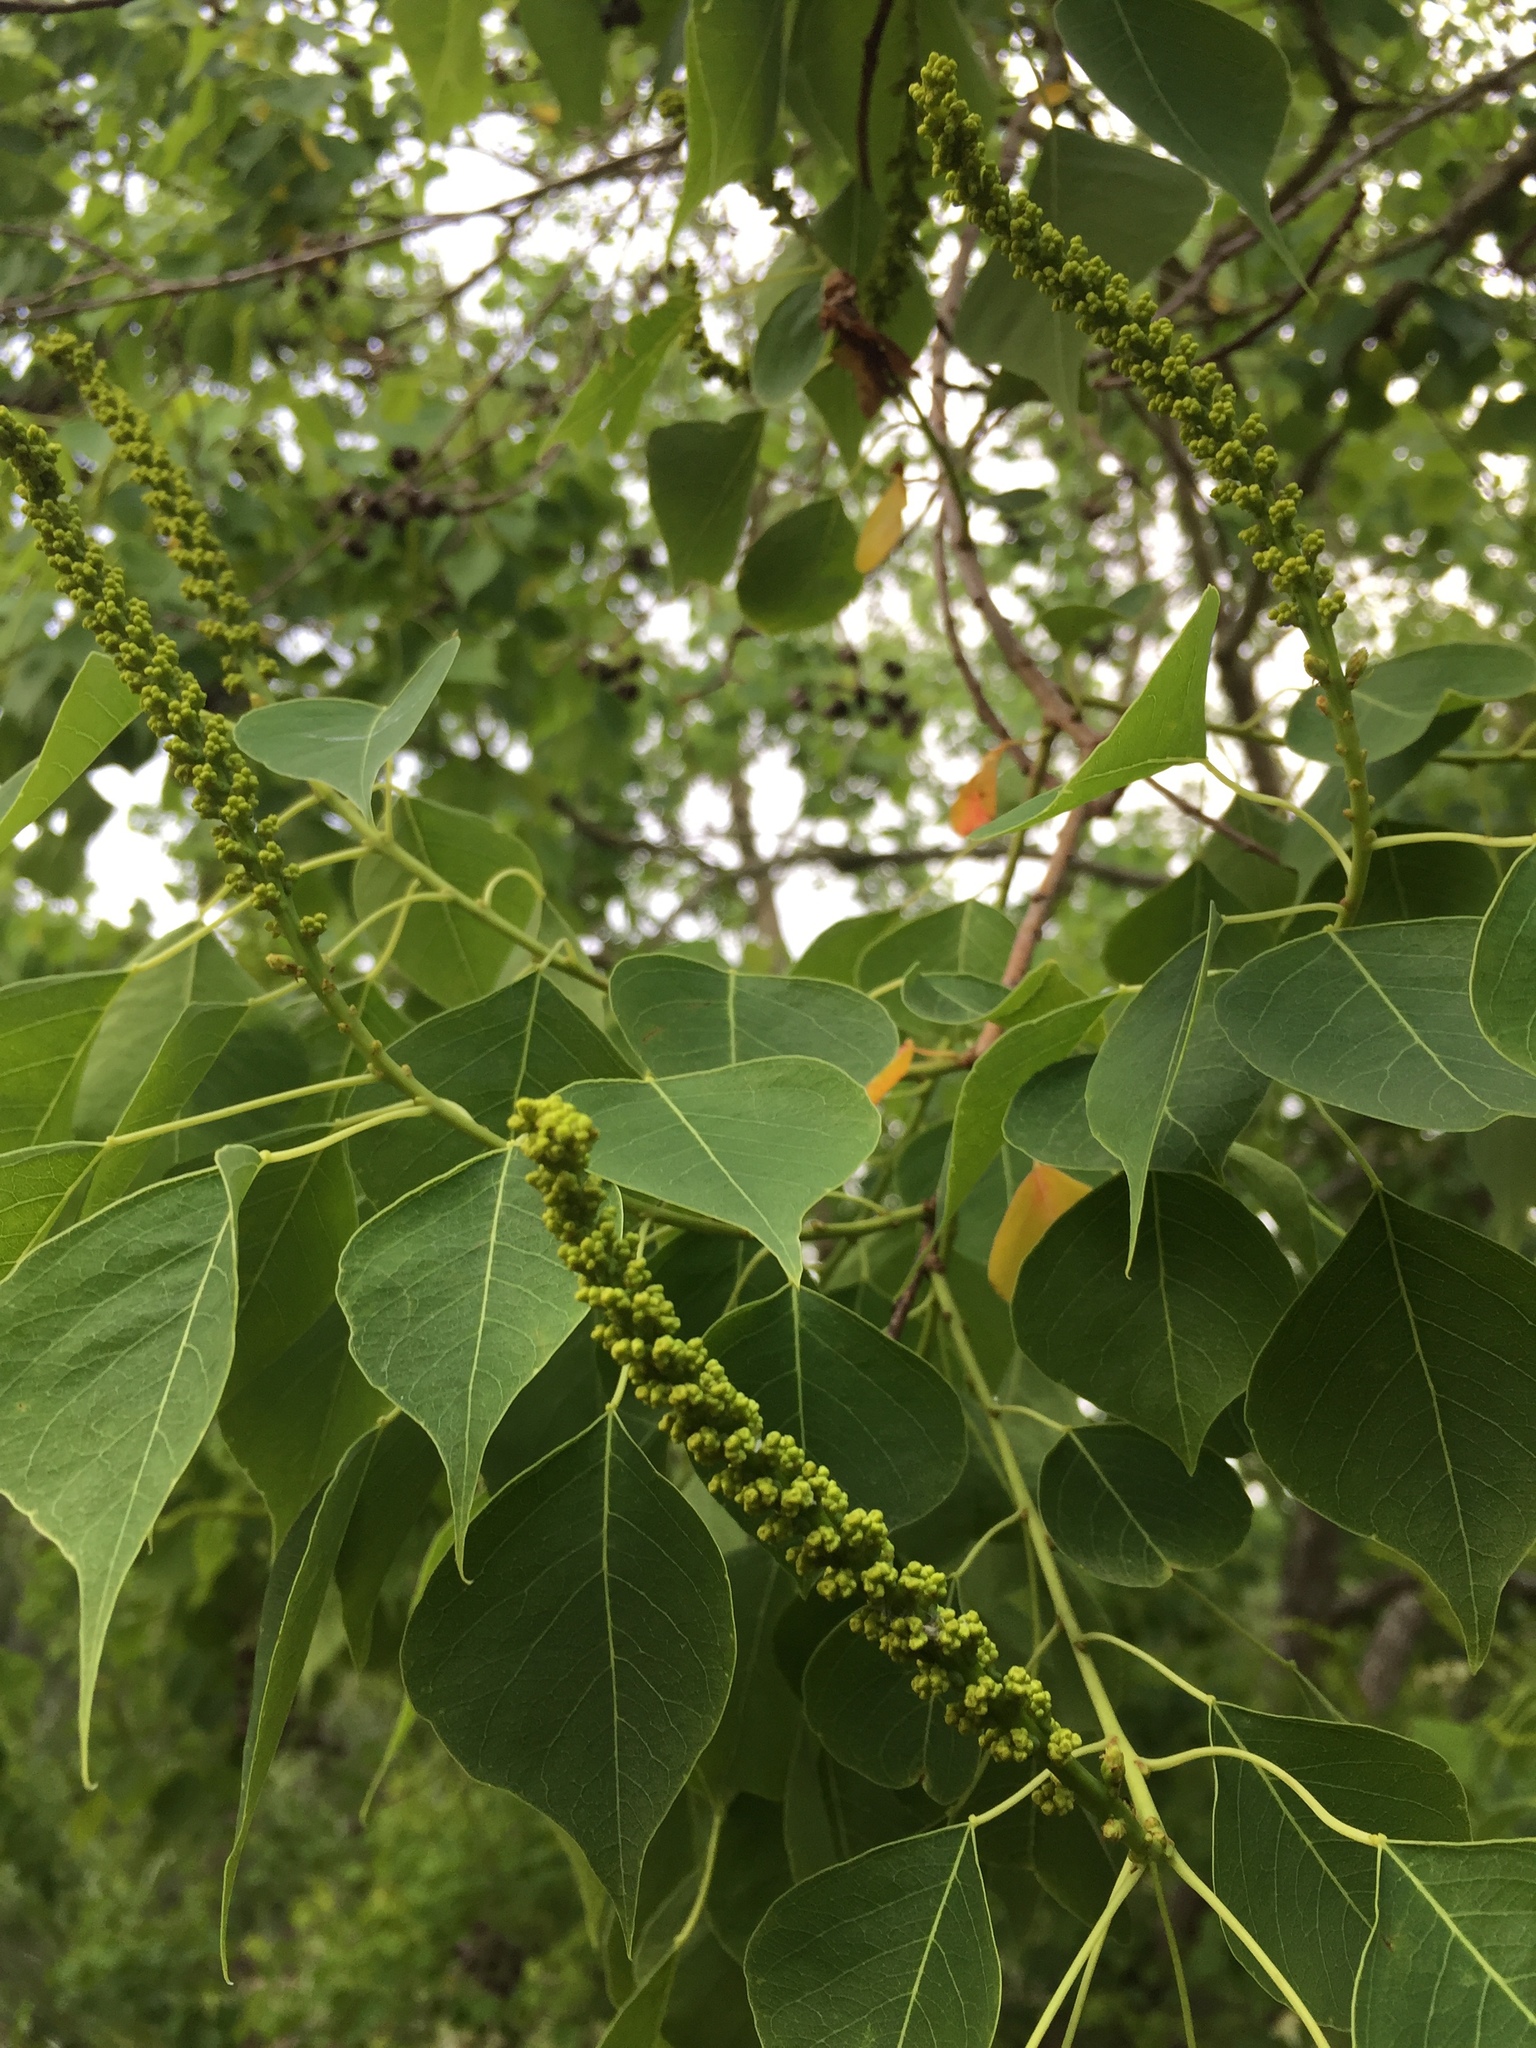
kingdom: Plantae
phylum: Tracheophyta
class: Magnoliopsida
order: Malpighiales
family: Euphorbiaceae
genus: Triadica
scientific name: Triadica sebifera
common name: Chinese tallow
